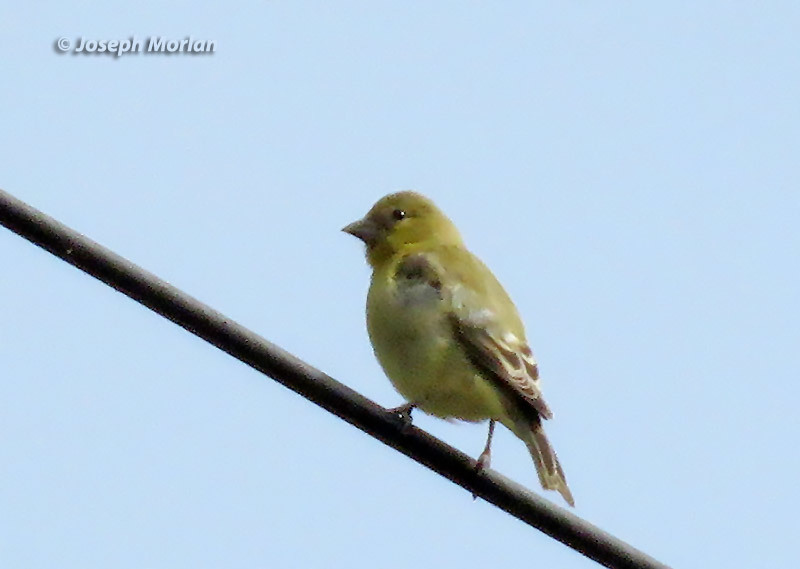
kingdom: Animalia
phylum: Chordata
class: Aves
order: Passeriformes
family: Fringillidae
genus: Spinus
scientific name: Spinus psaltria
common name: Lesser goldfinch
